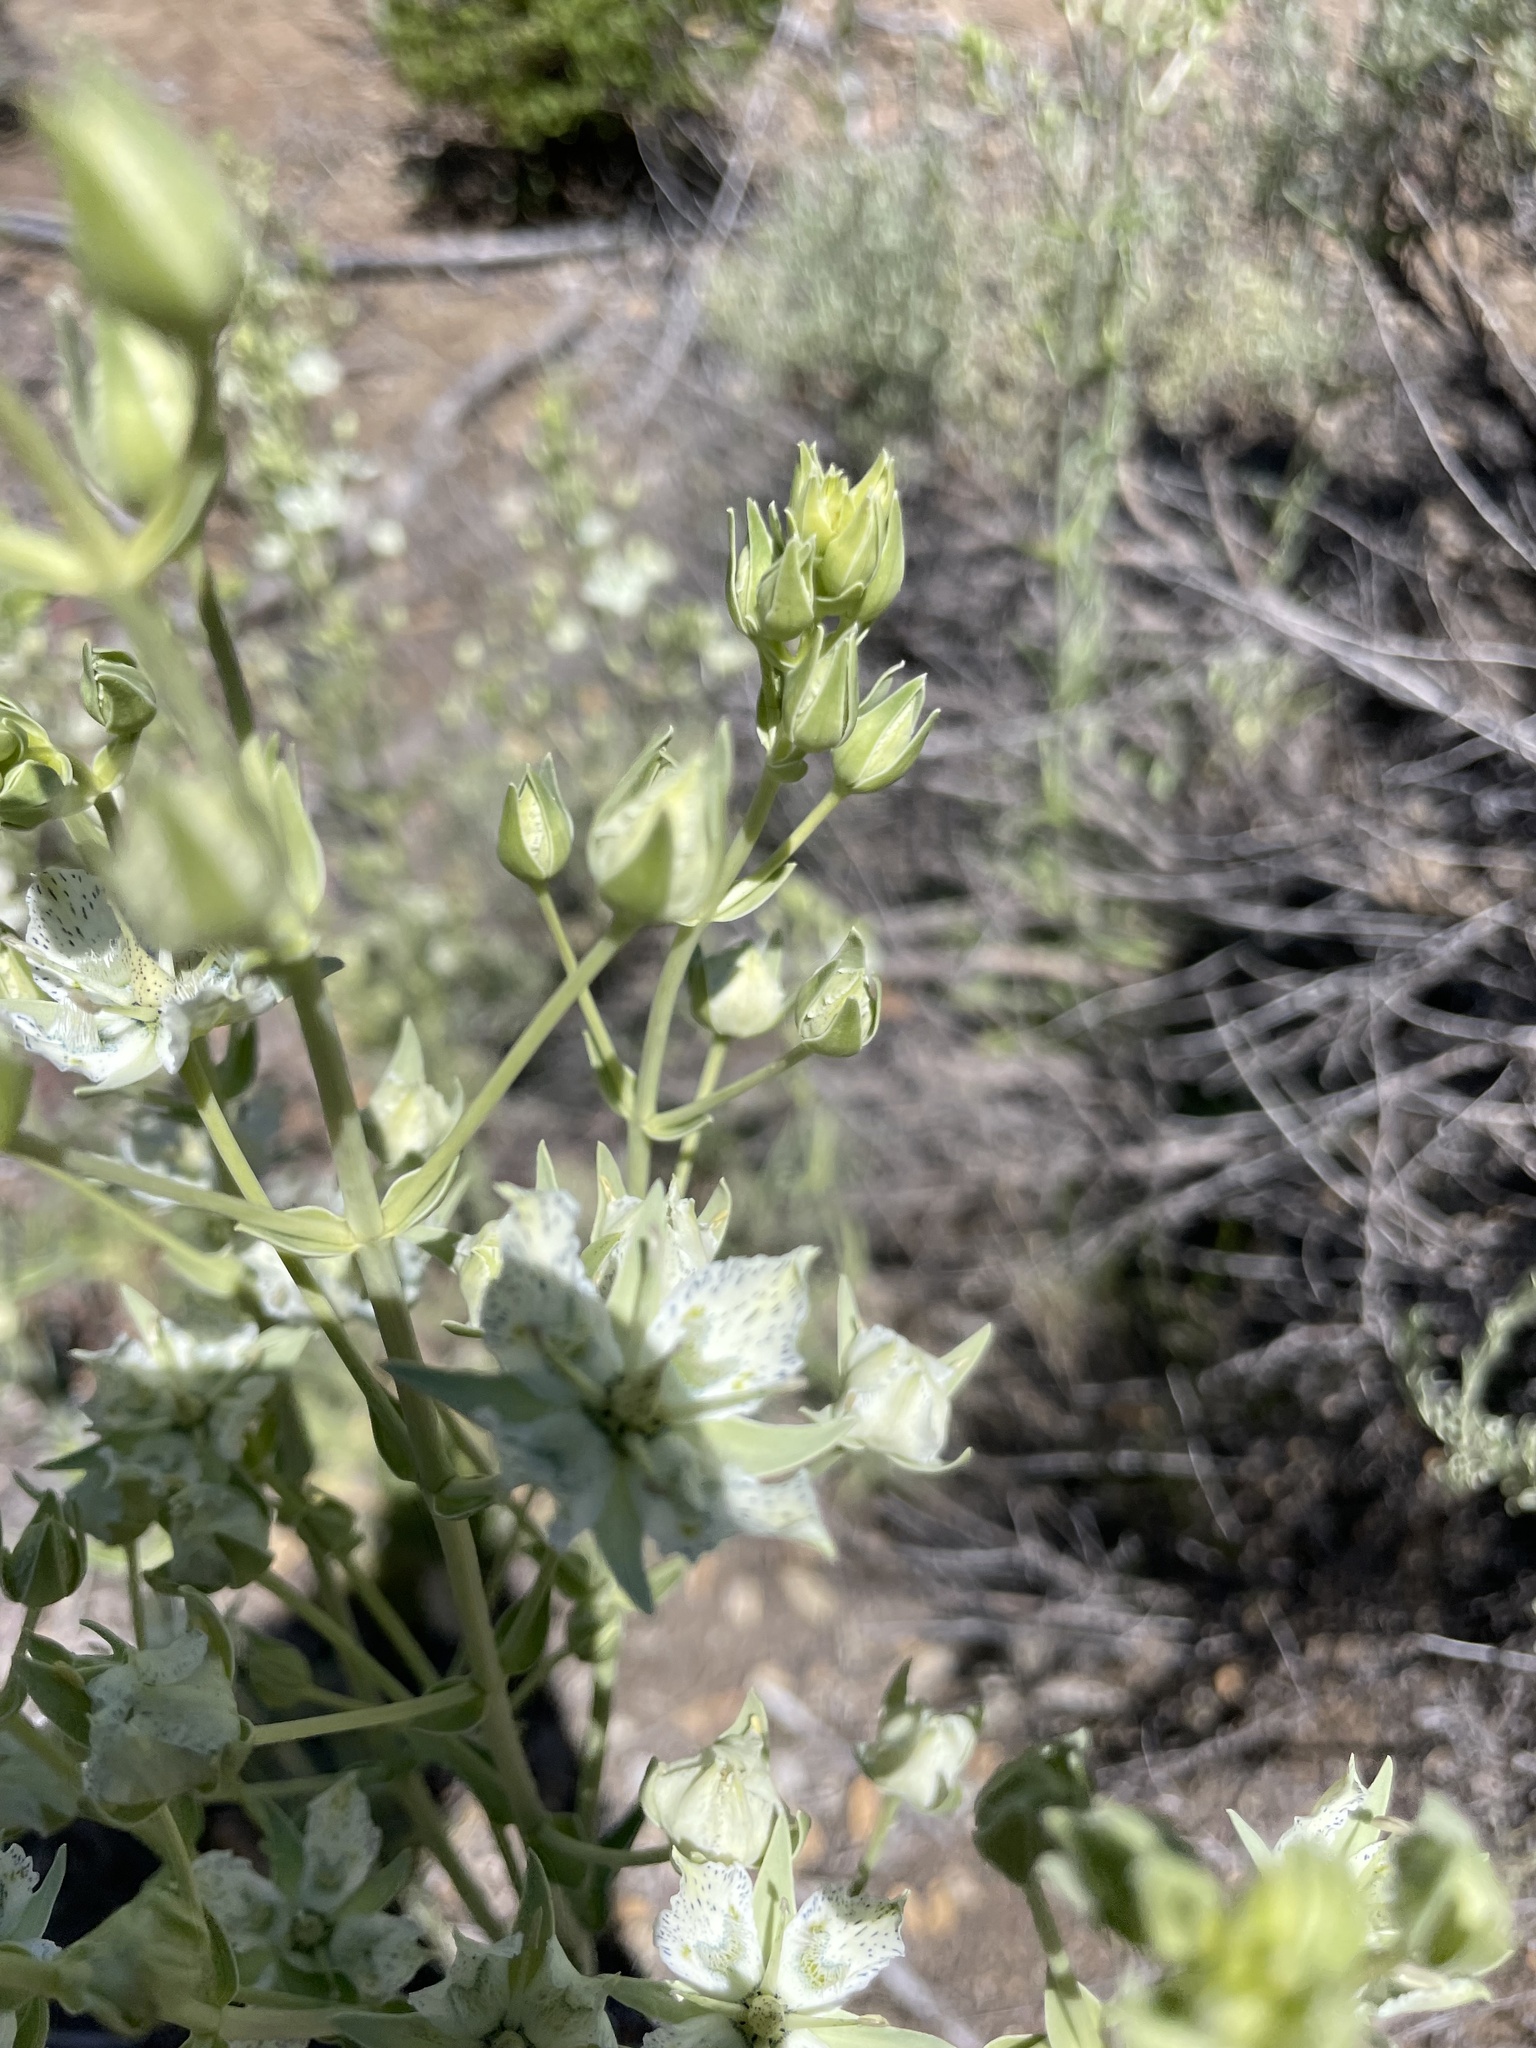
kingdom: Plantae
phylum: Tracheophyta
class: Magnoliopsida
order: Gentianales
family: Gentianaceae
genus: Frasera
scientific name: Frasera parryi
